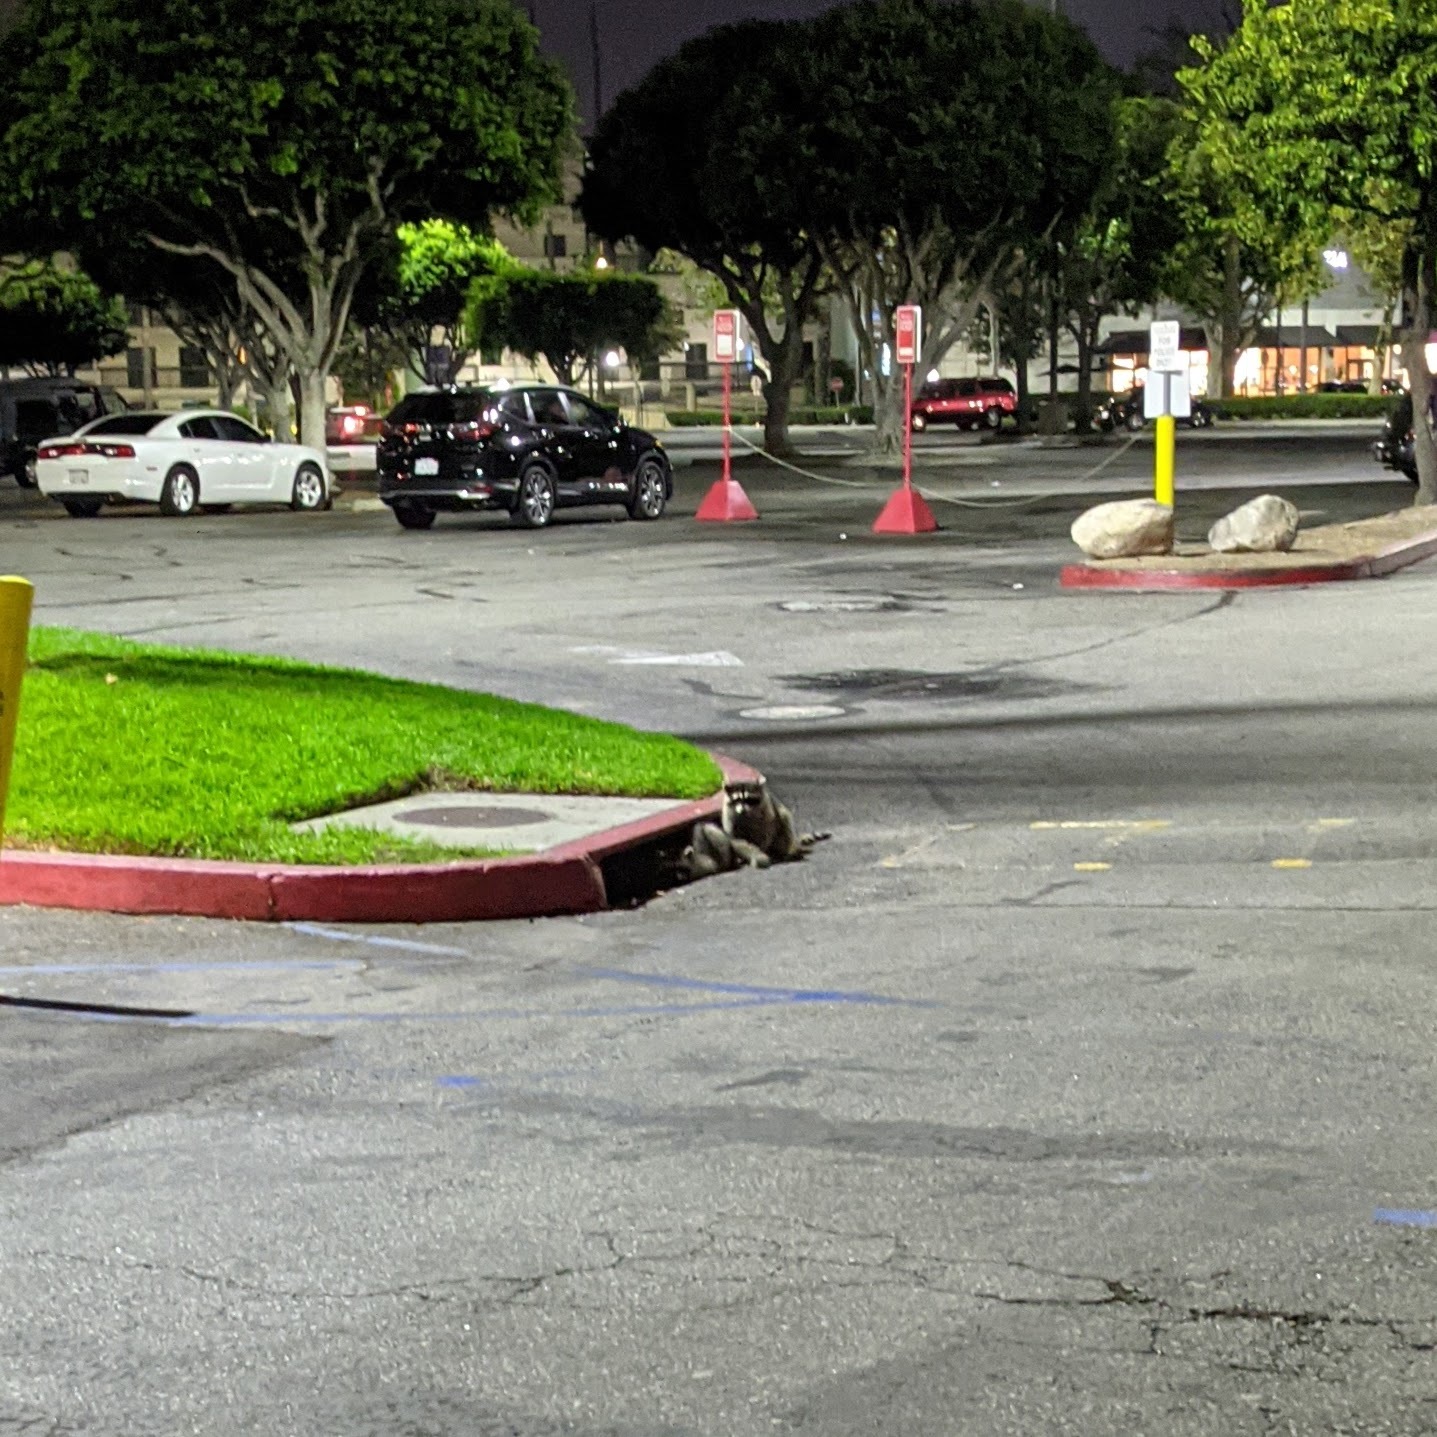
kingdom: Animalia
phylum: Chordata
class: Mammalia
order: Carnivora
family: Procyonidae
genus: Procyon
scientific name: Procyon lotor
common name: Raccoon
